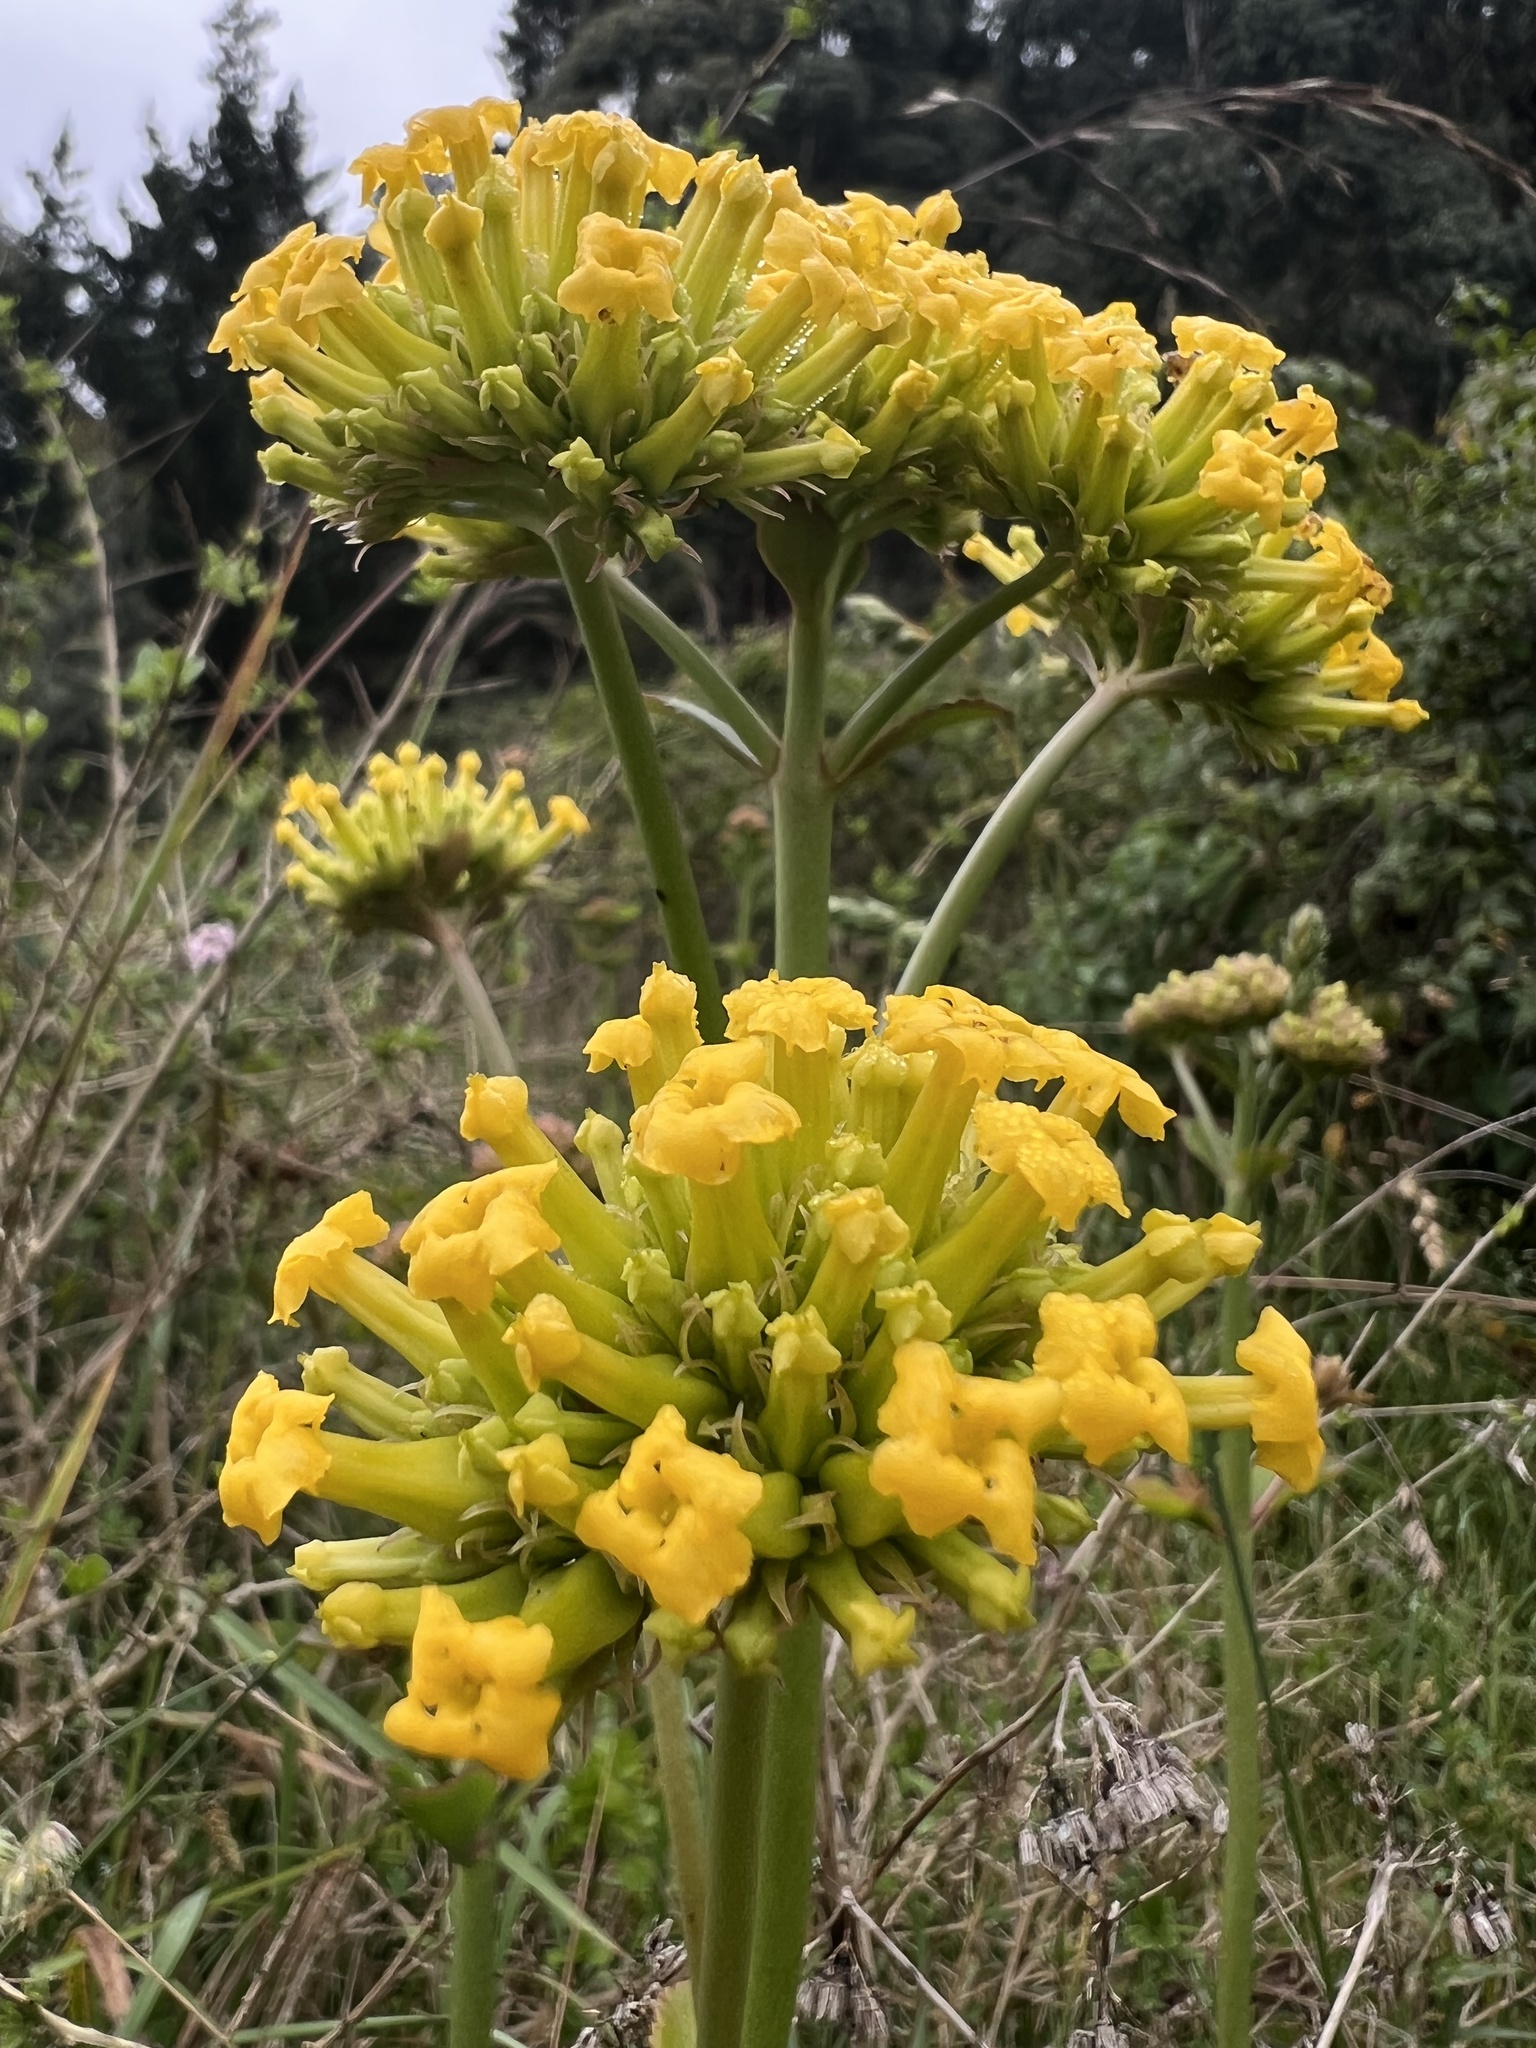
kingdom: Plantae
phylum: Tracheophyta
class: Magnoliopsida
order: Saxifragales
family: Crassulaceae
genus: Kalanchoe
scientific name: Kalanchoe densiflora
